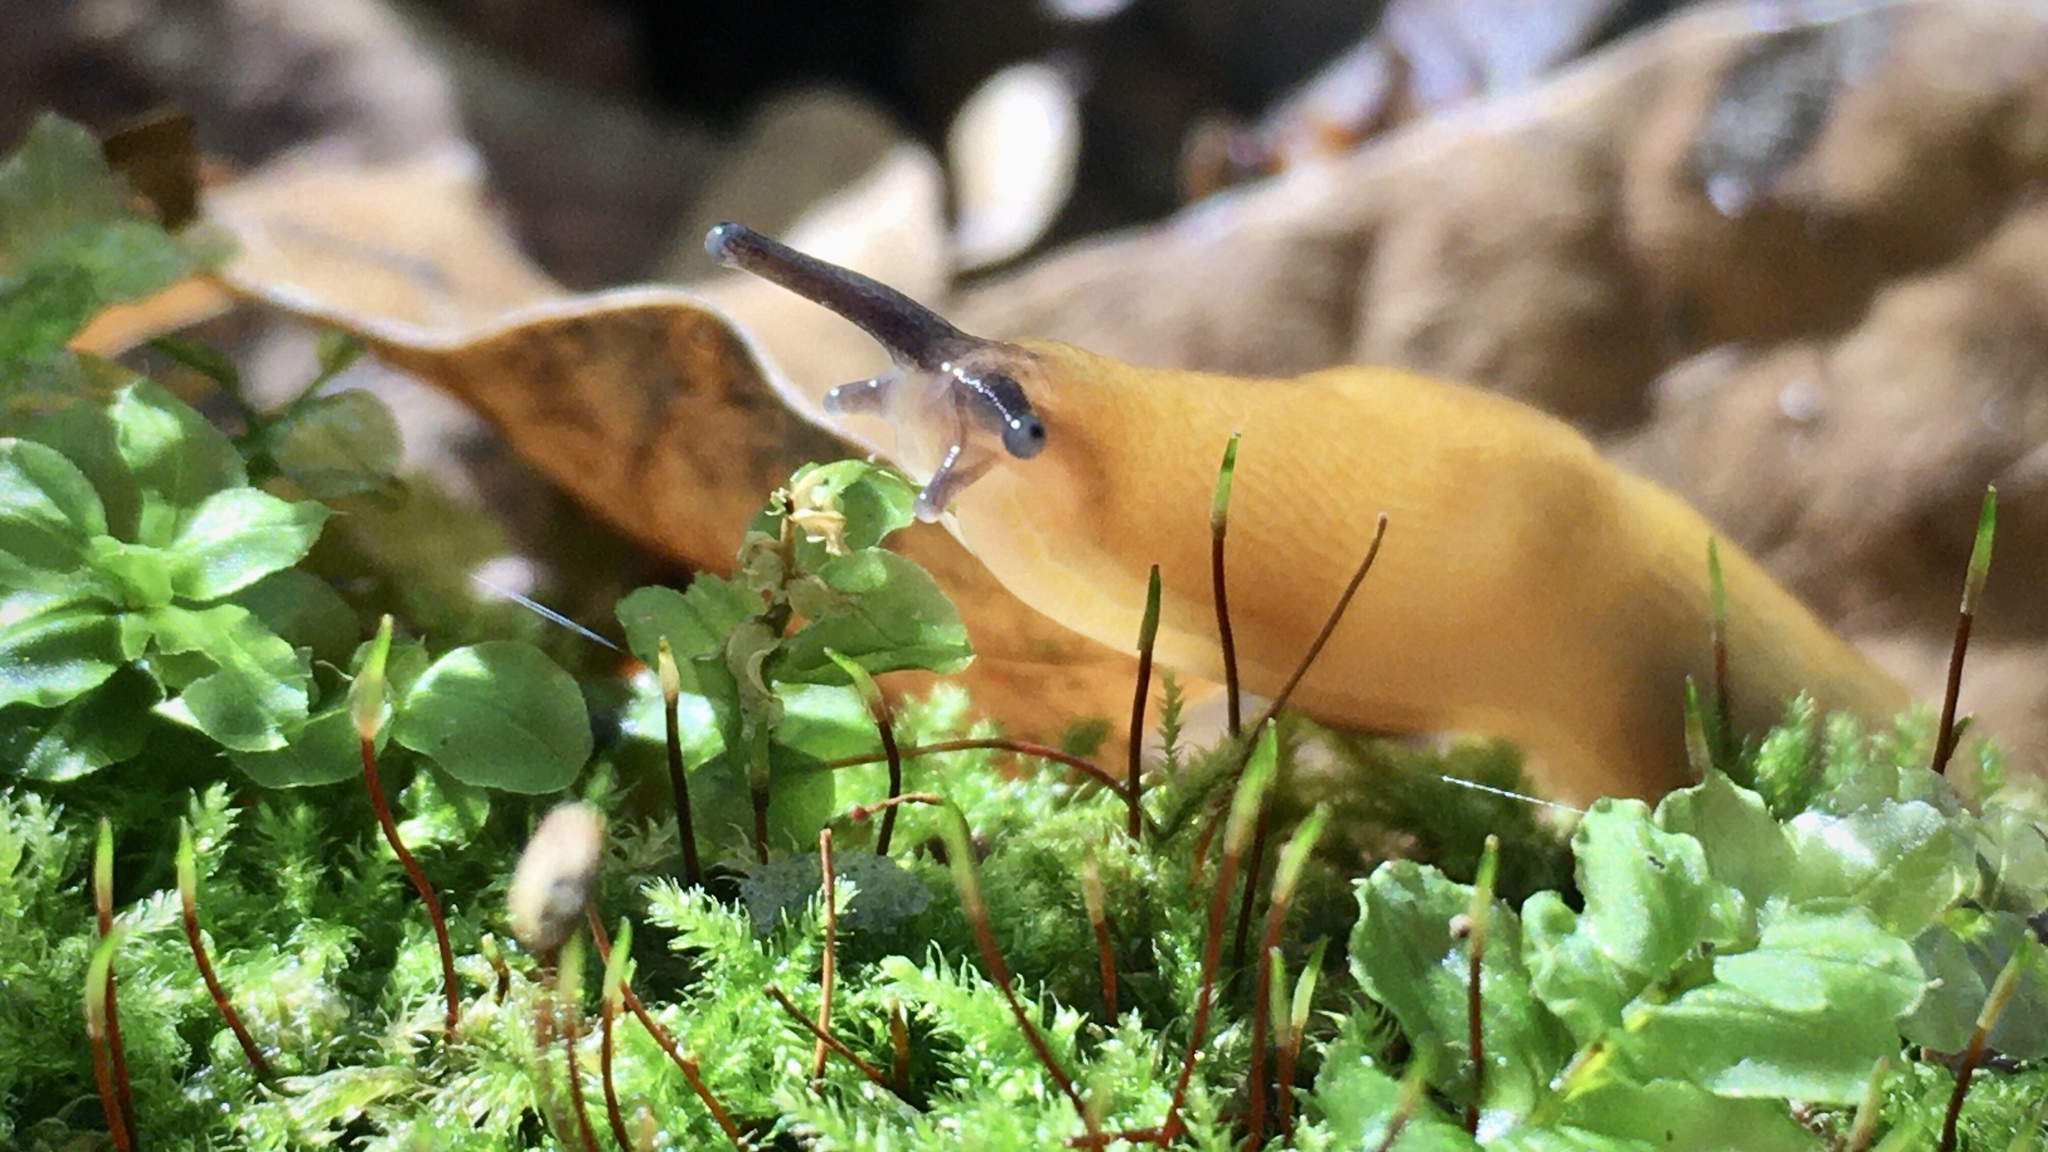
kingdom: Animalia
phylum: Mollusca
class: Gastropoda
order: Stylommatophora
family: Limacidae
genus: Malacolimax
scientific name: Malacolimax tenellus
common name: Lemon slug
